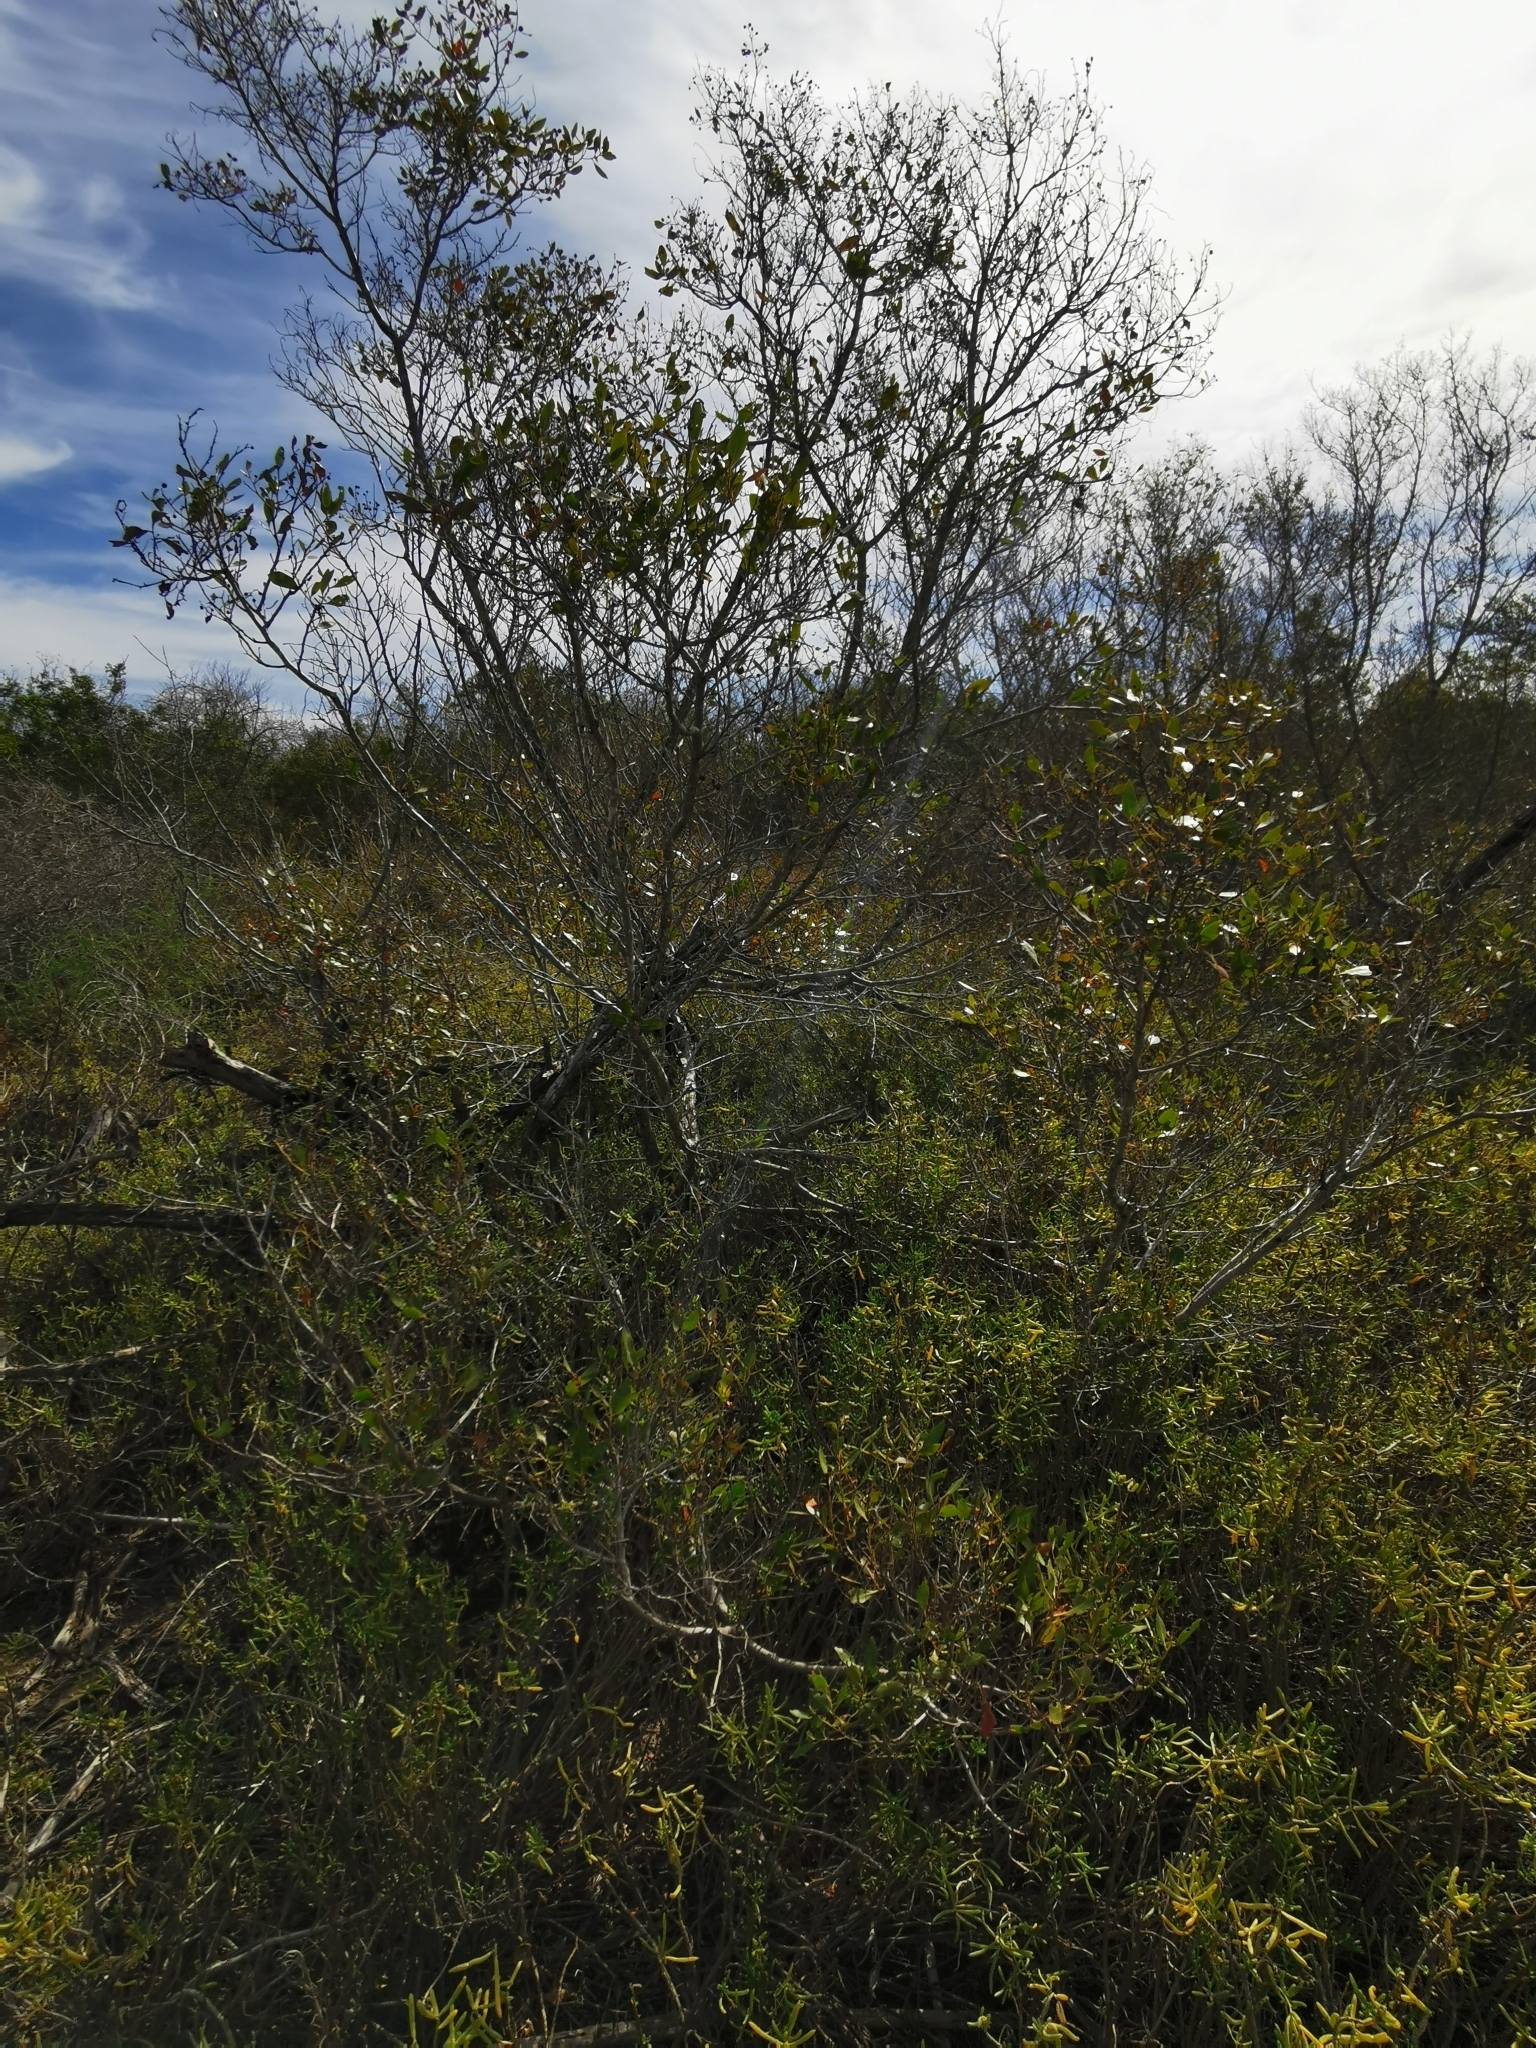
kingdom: Plantae
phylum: Tracheophyta
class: Magnoliopsida
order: Myrtales
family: Combretaceae
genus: Conocarpus
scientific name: Conocarpus erectus
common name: Button mangrove
